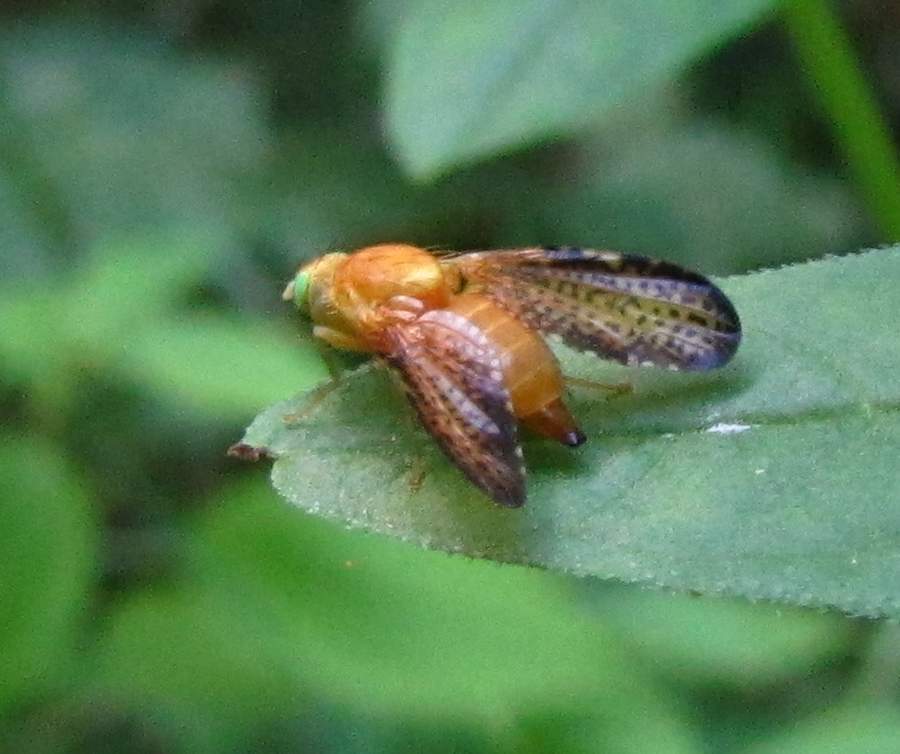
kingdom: Animalia
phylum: Arthropoda
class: Insecta
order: Diptera
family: Tephritidae
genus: Icterica
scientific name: Icterica seriata
